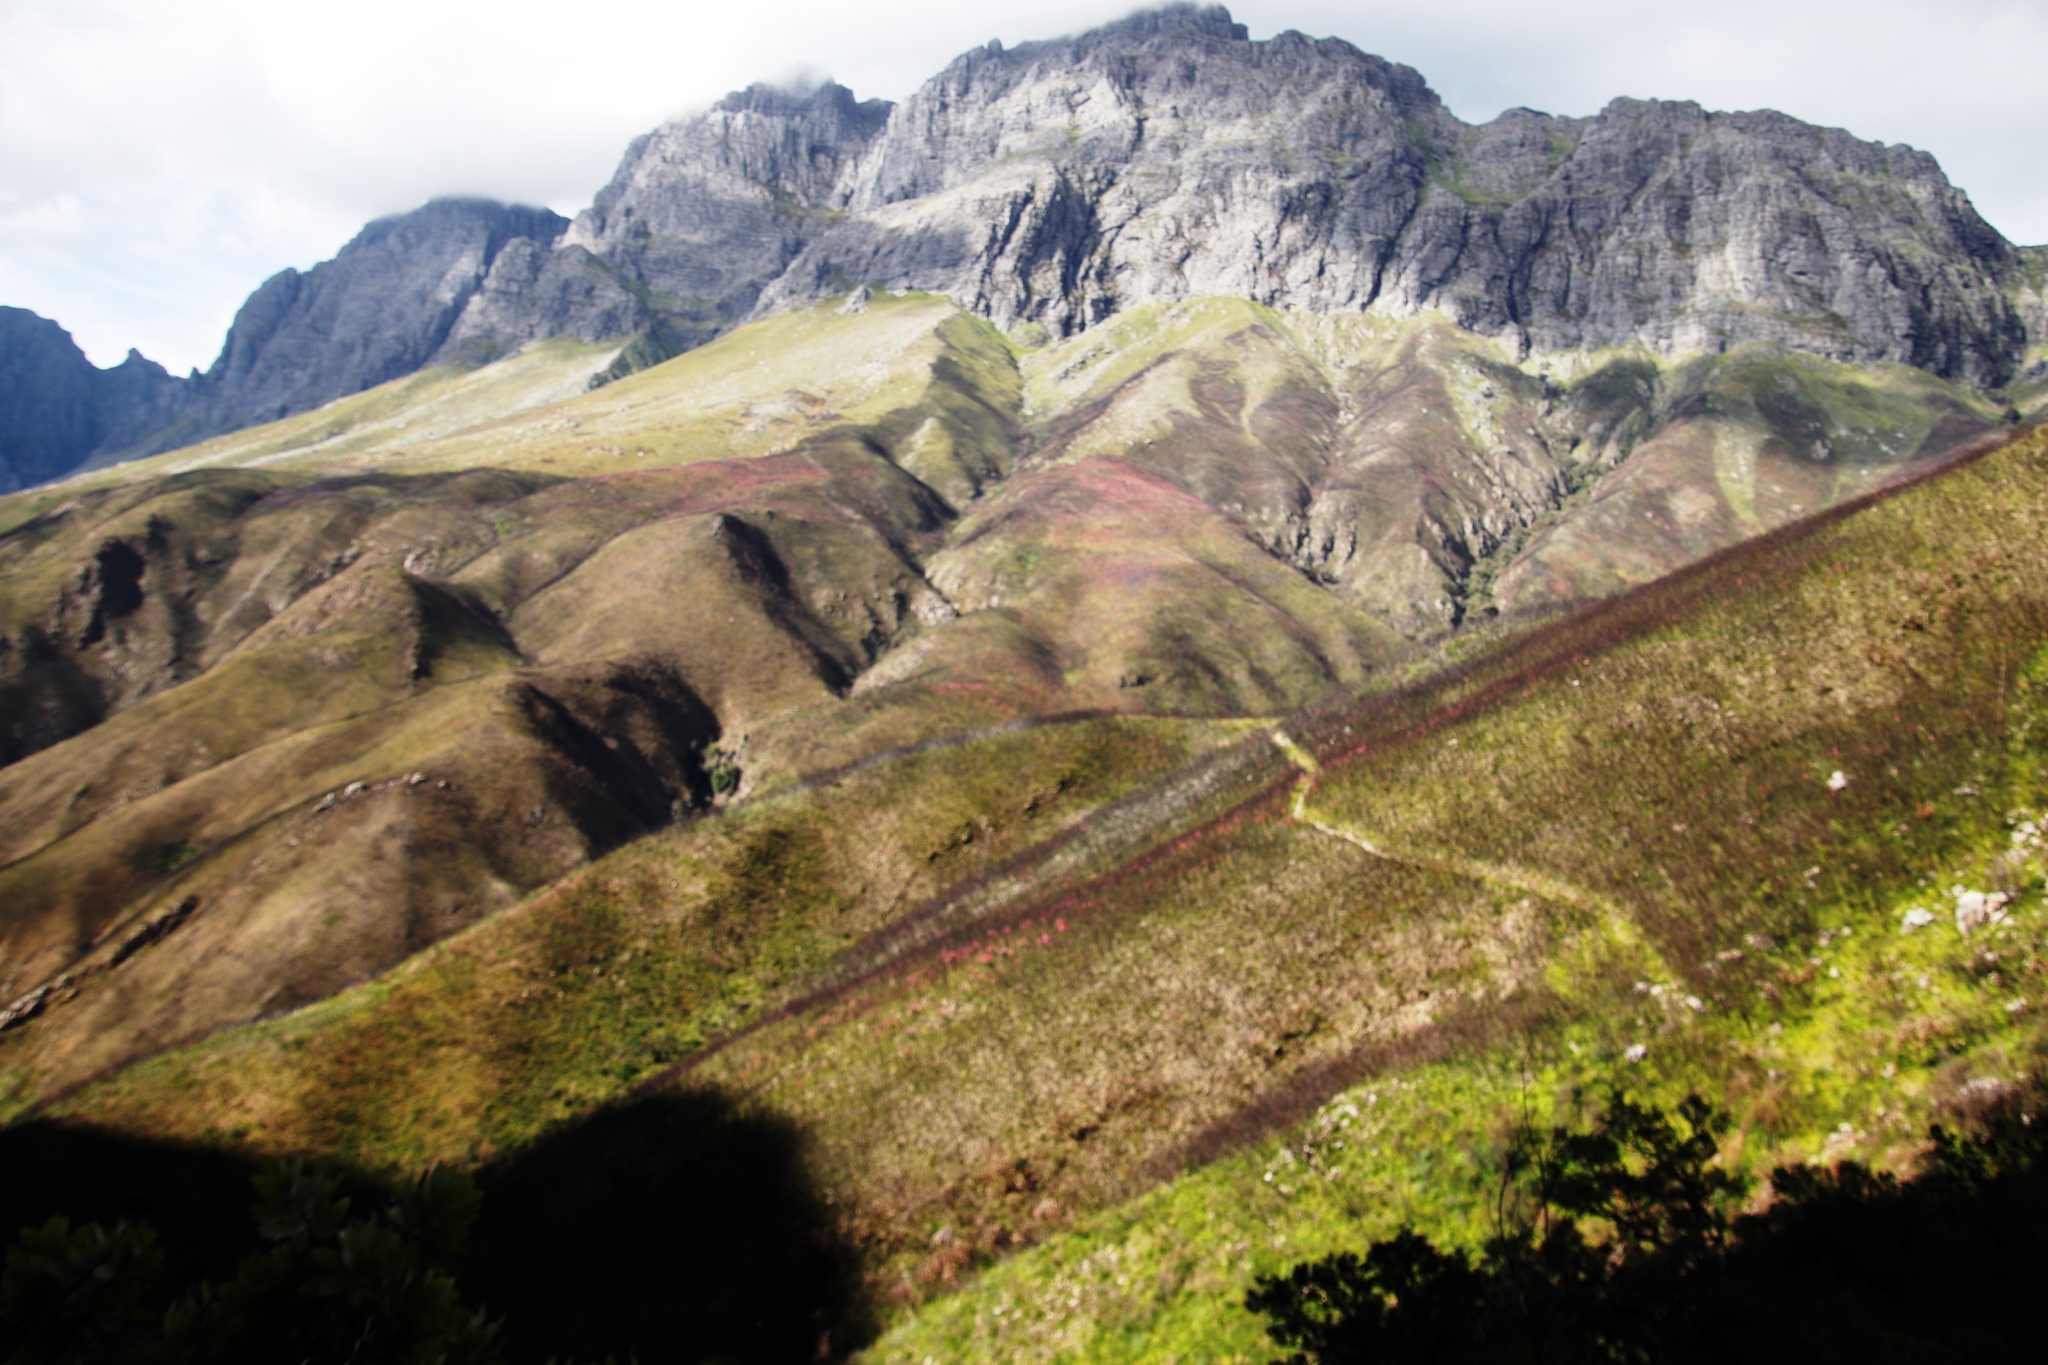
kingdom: Plantae
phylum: Tracheophyta
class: Liliopsida
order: Asparagales
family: Iridaceae
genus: Watsonia
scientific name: Watsonia borbonica
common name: Bugle-lily
